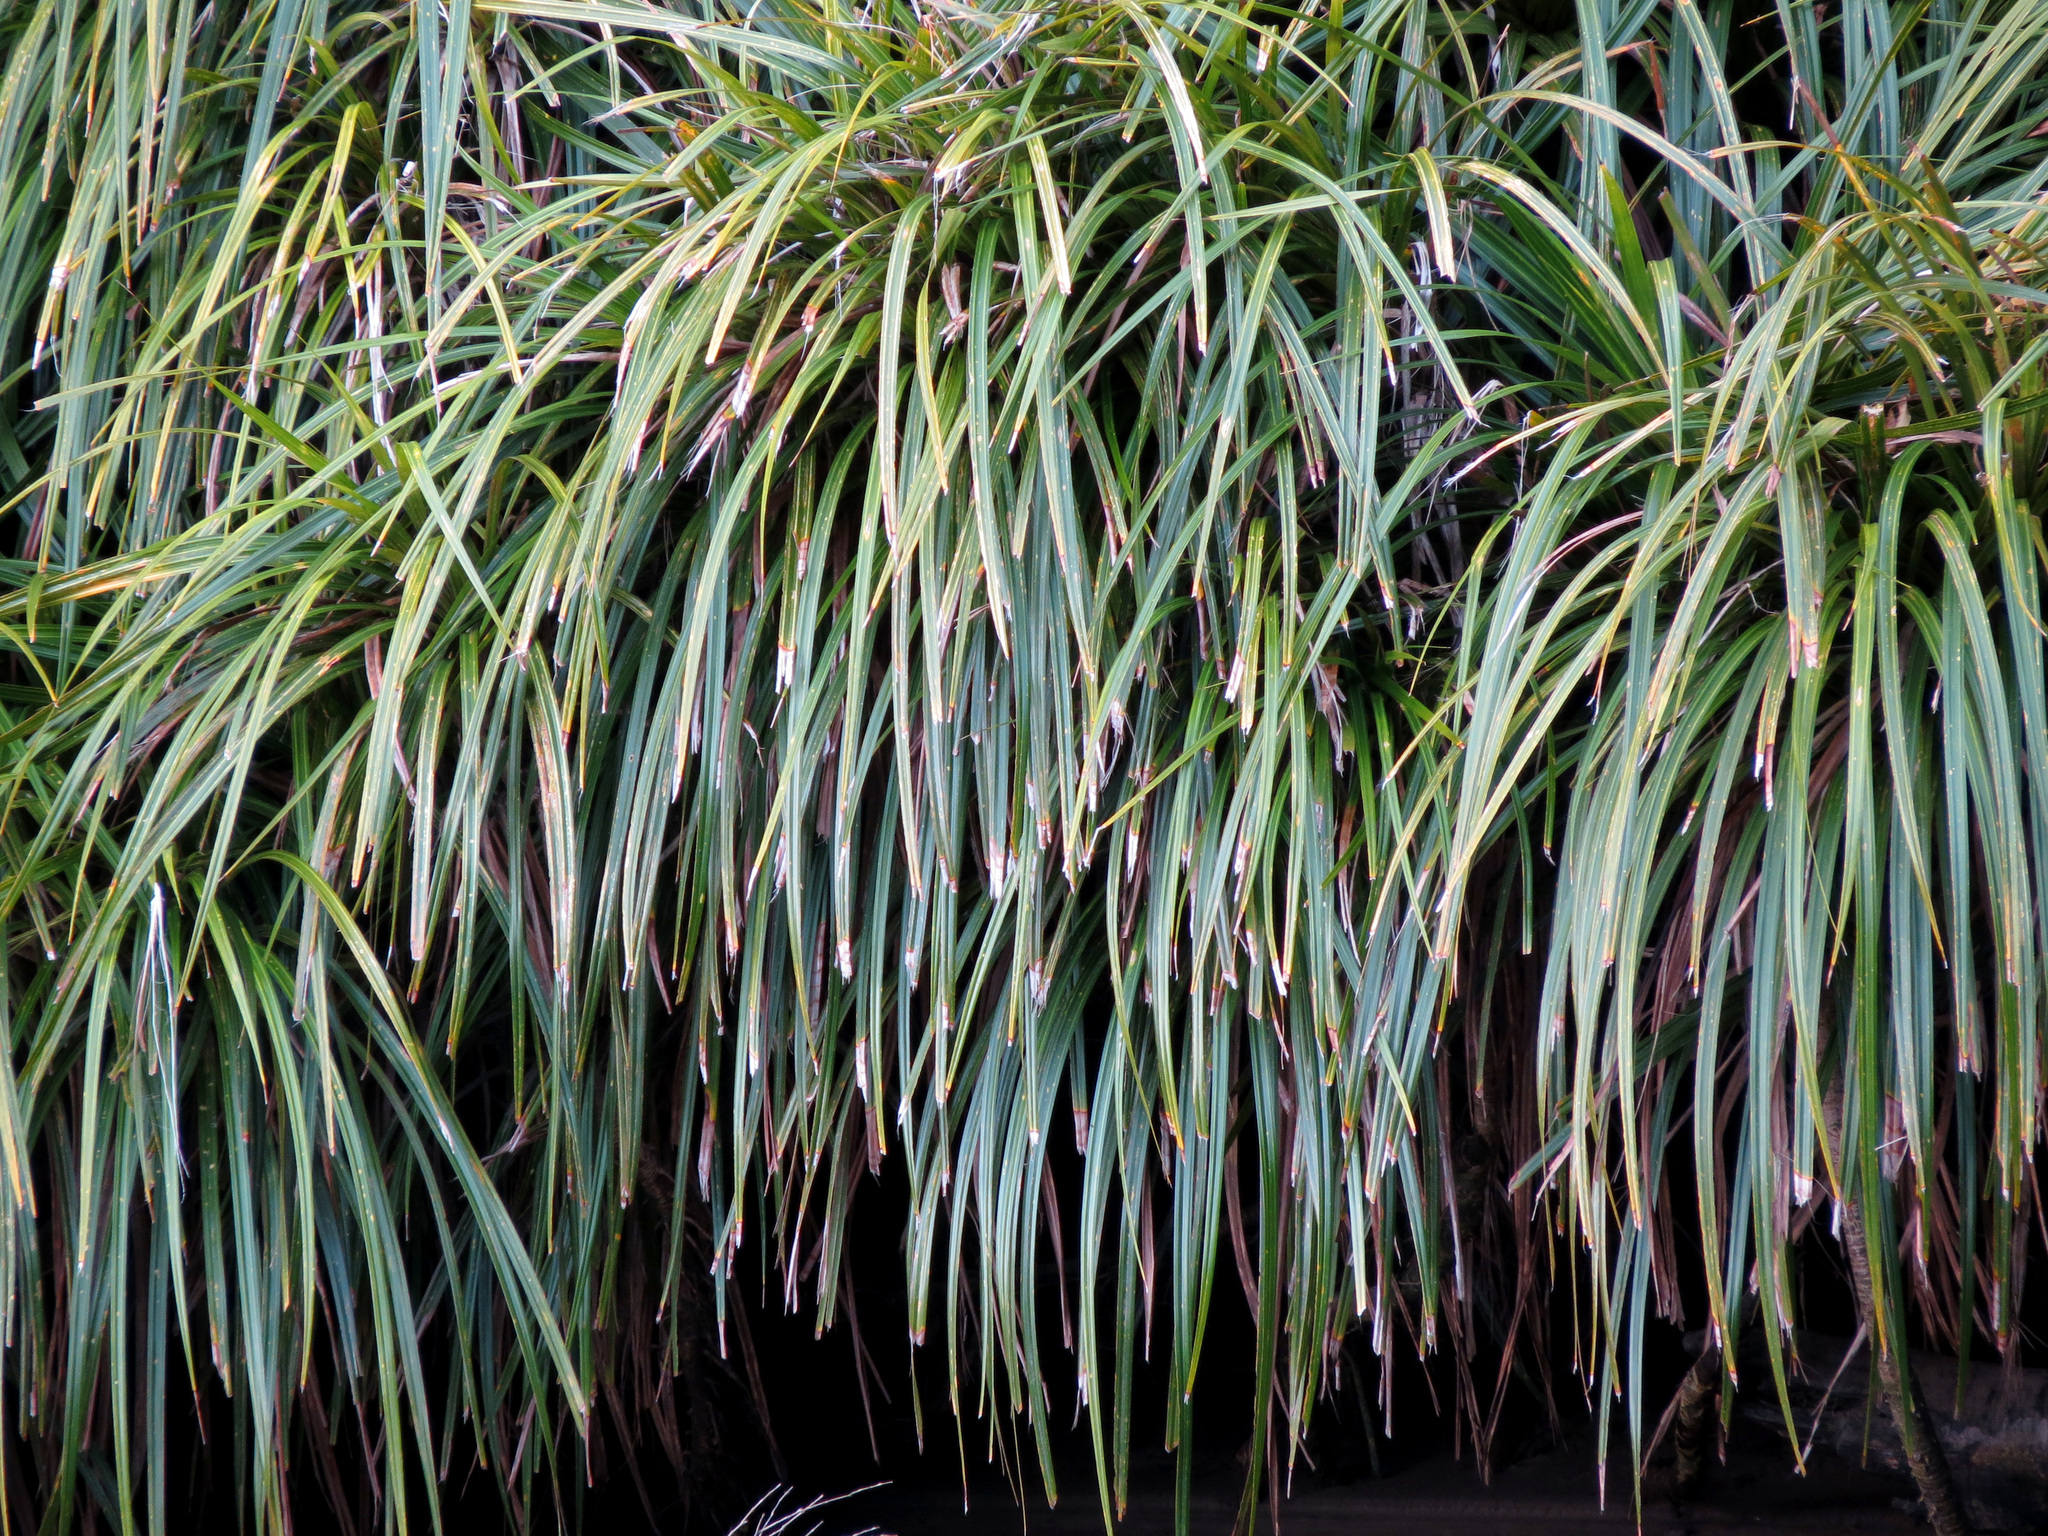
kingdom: Plantae
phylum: Tracheophyta
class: Liliopsida
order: Pandanales
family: Pandanaceae
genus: Freycinetia
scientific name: Freycinetia banksii
